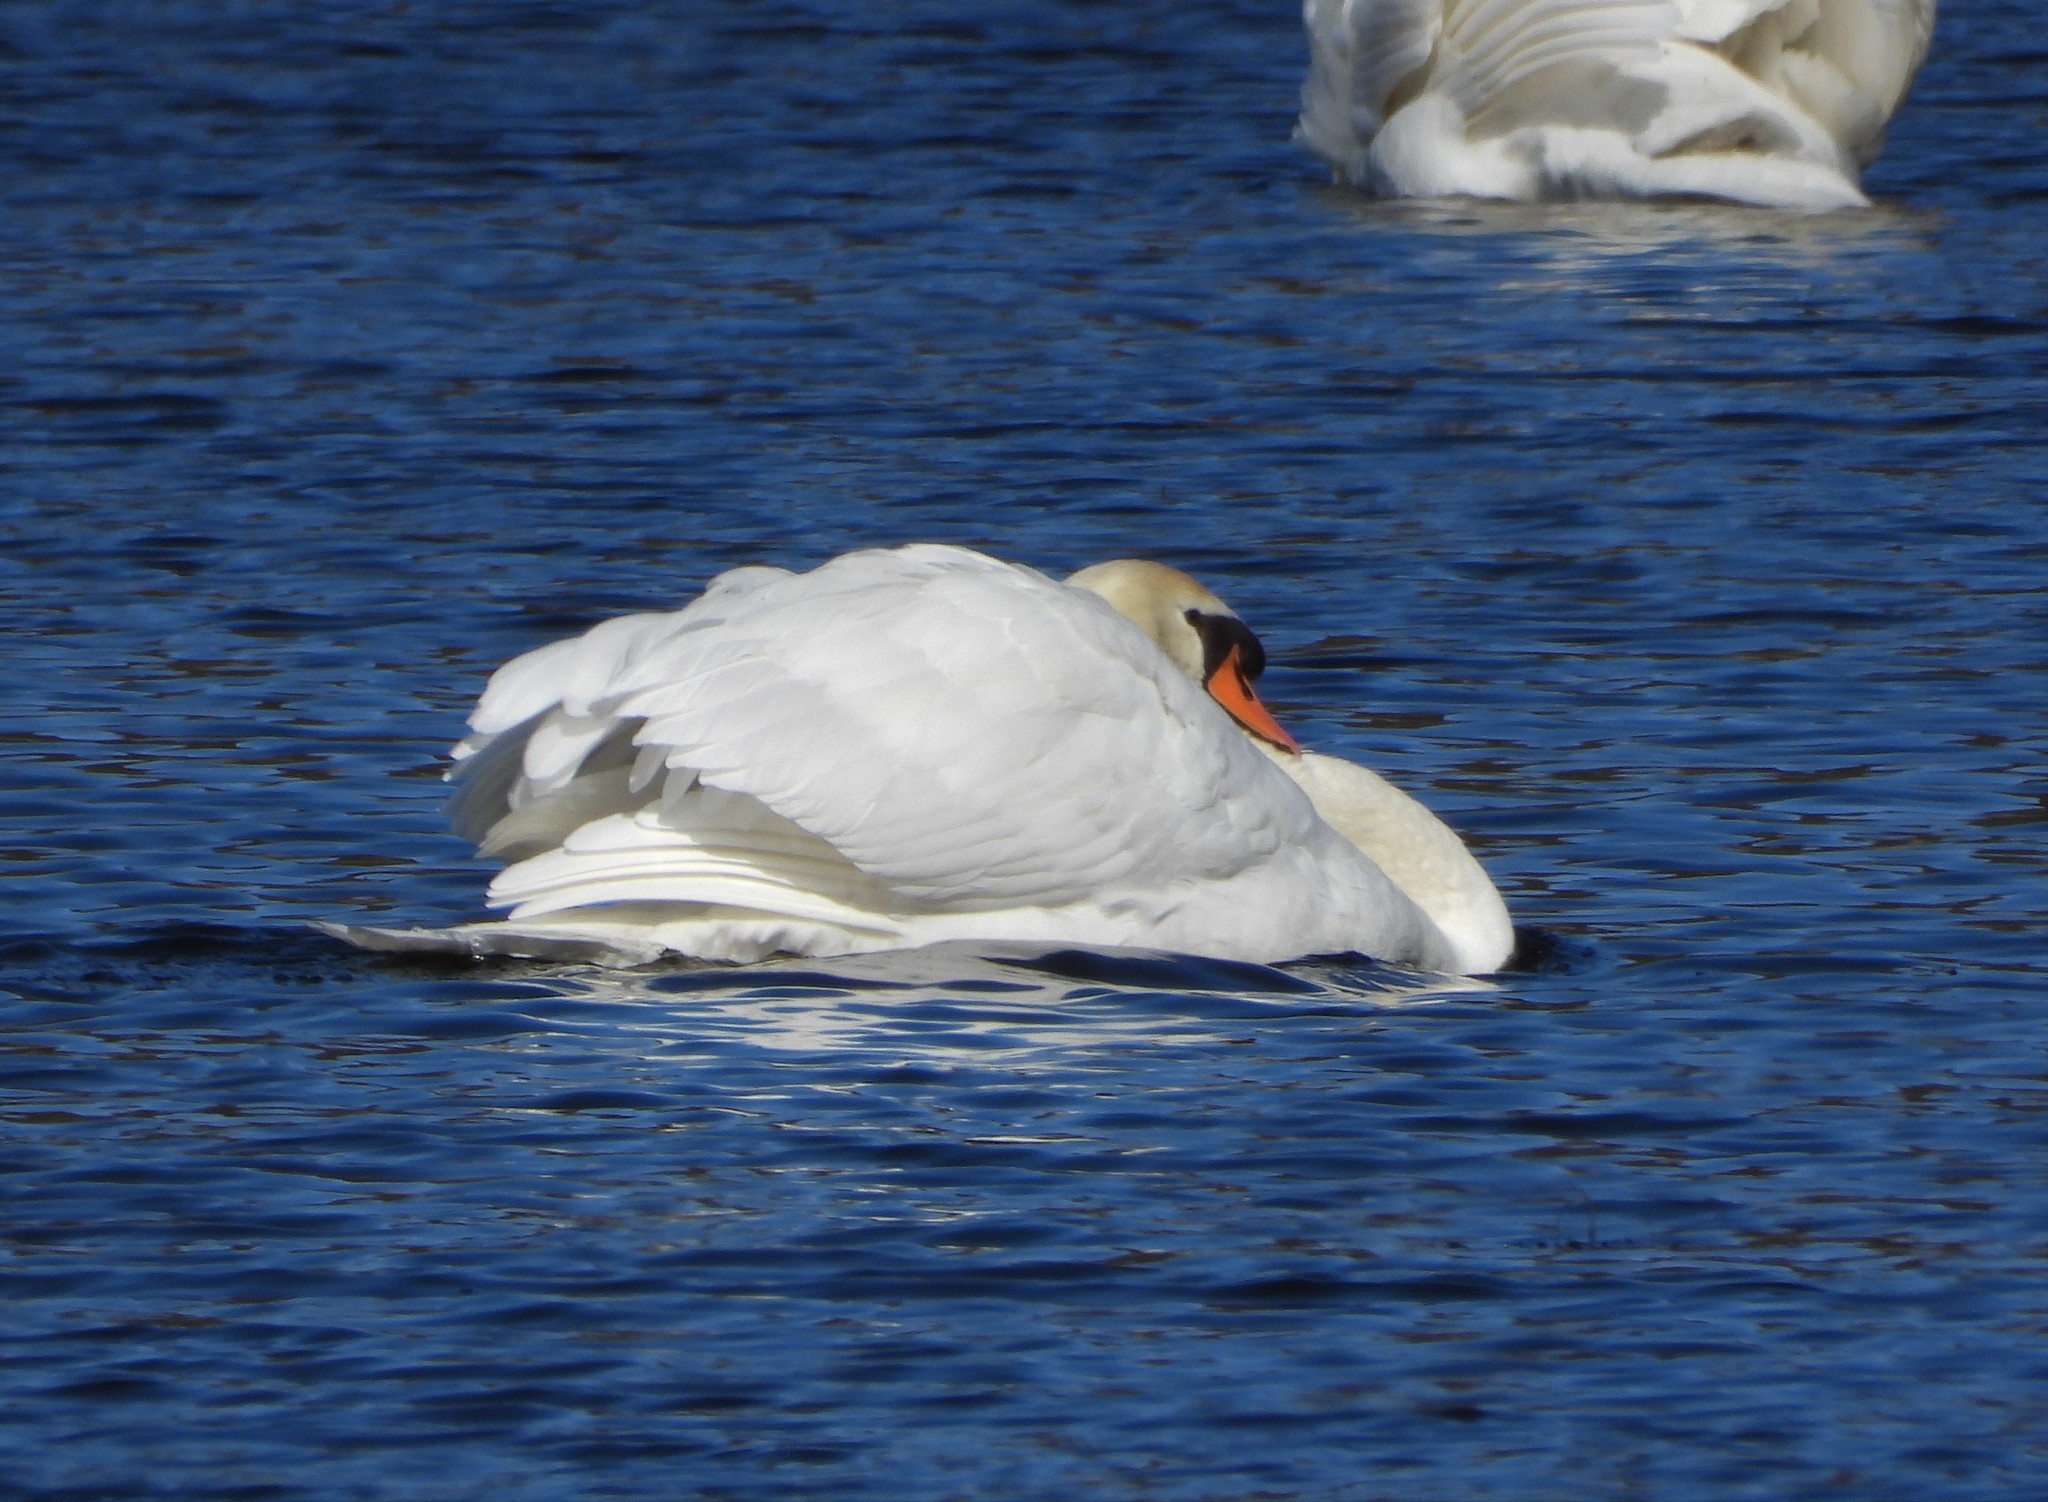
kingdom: Animalia
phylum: Chordata
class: Aves
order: Anseriformes
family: Anatidae
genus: Cygnus
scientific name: Cygnus olor
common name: Mute swan
